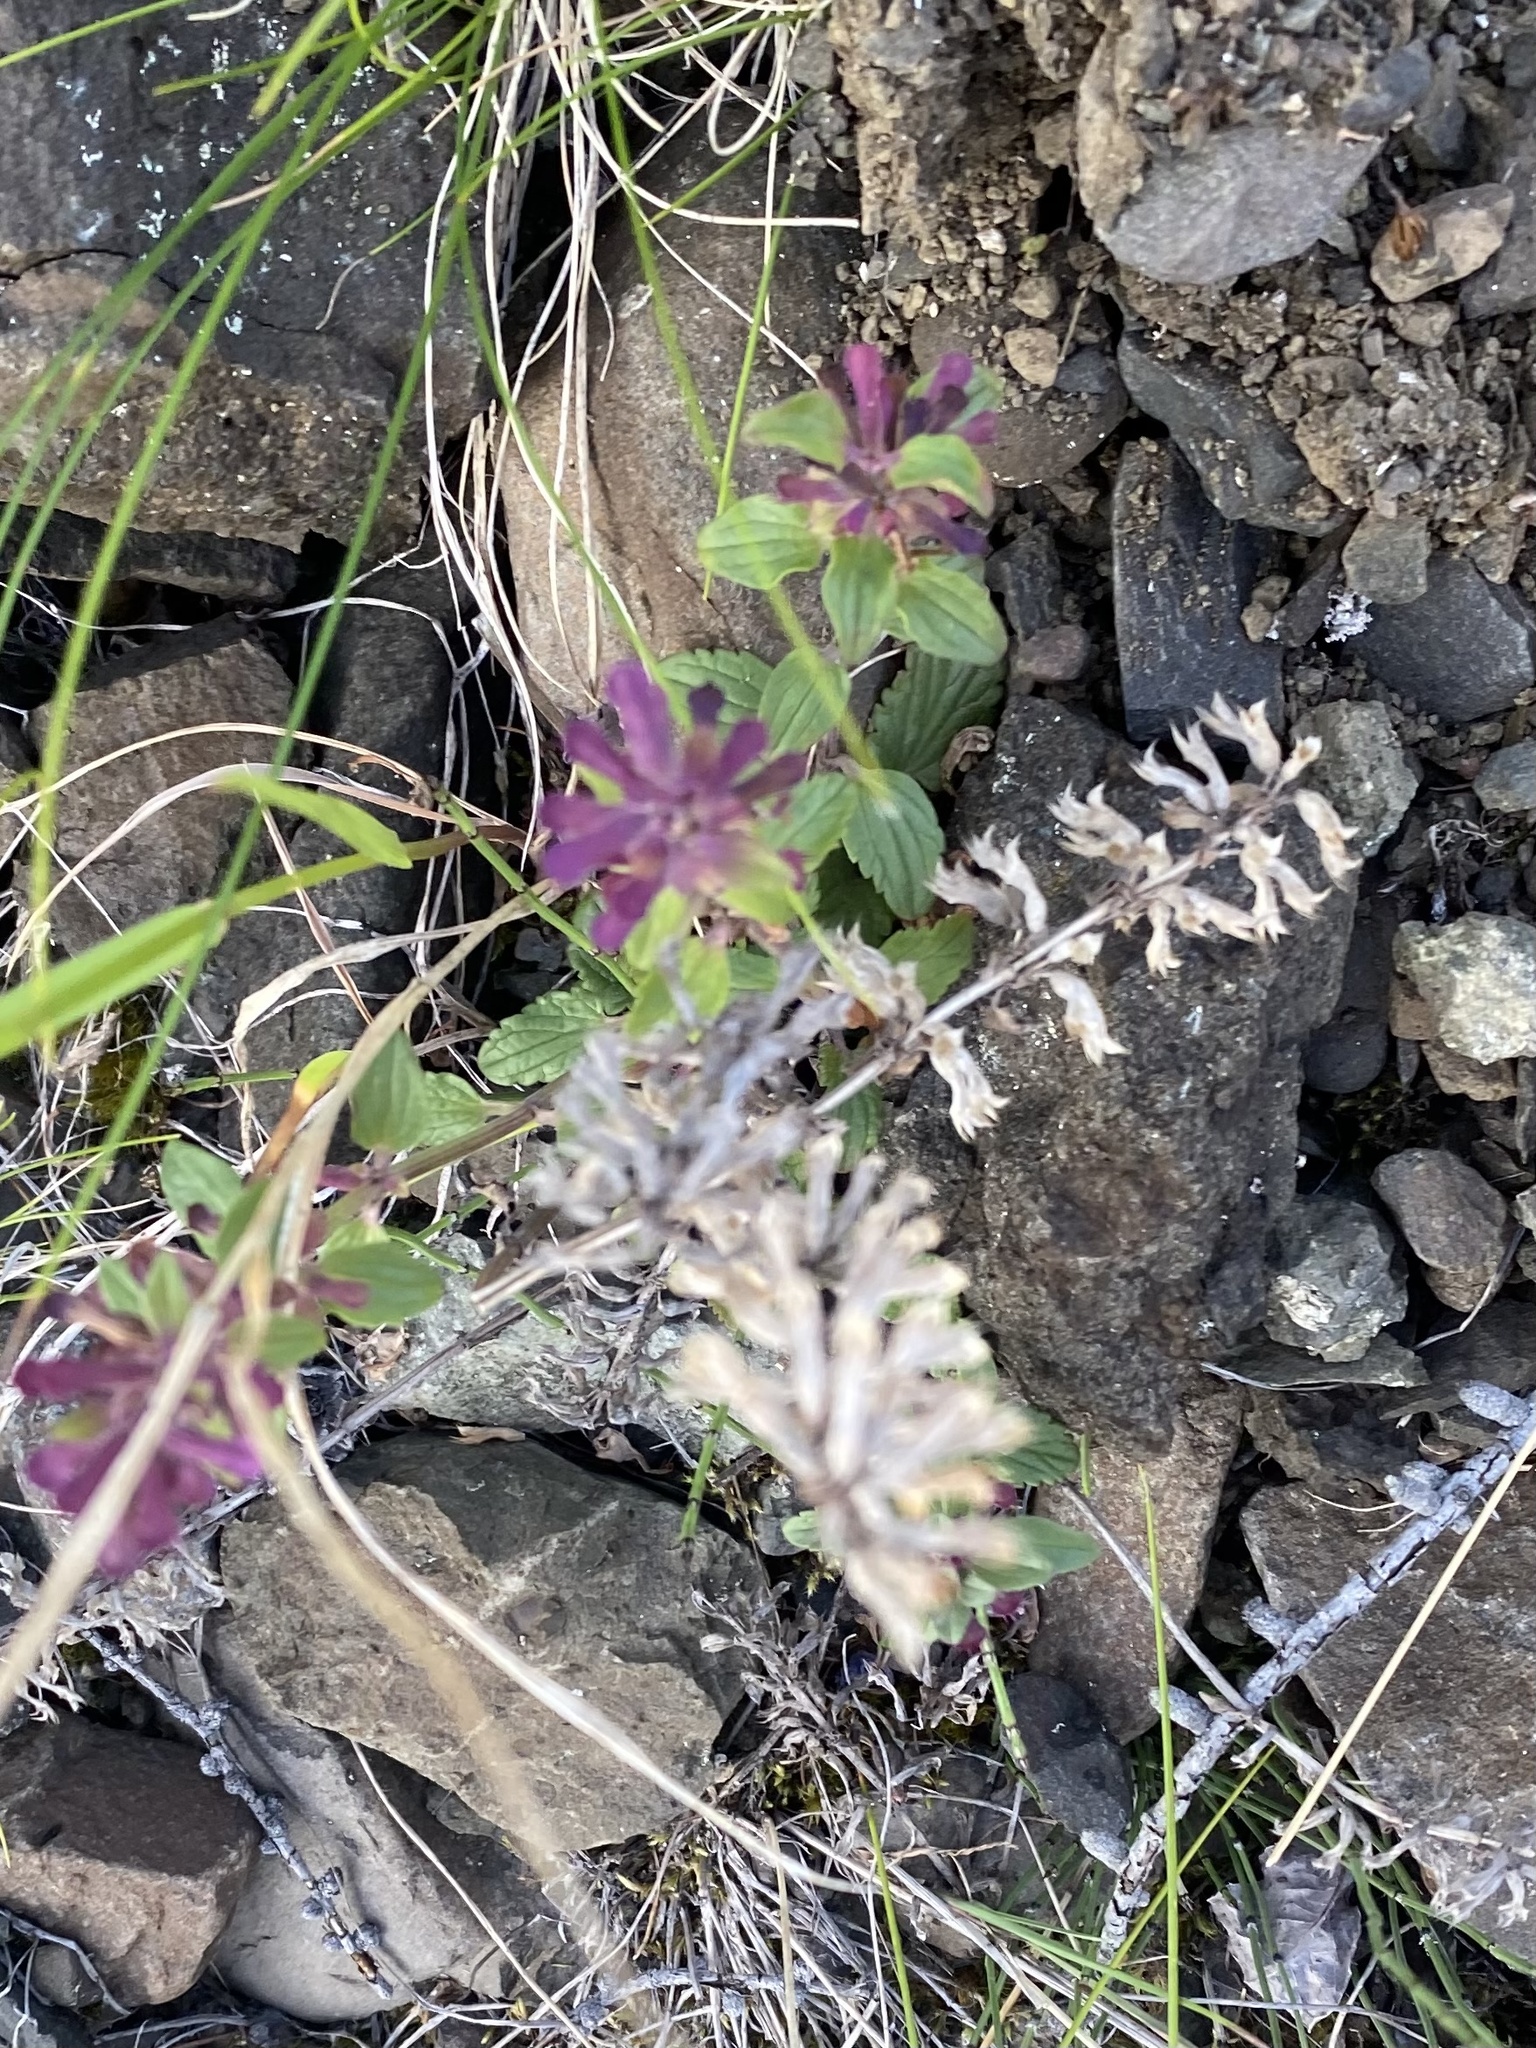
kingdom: Plantae
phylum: Tracheophyta
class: Magnoliopsida
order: Lamiales
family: Lamiaceae
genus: Dracocephalum
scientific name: Dracocephalum nutans
